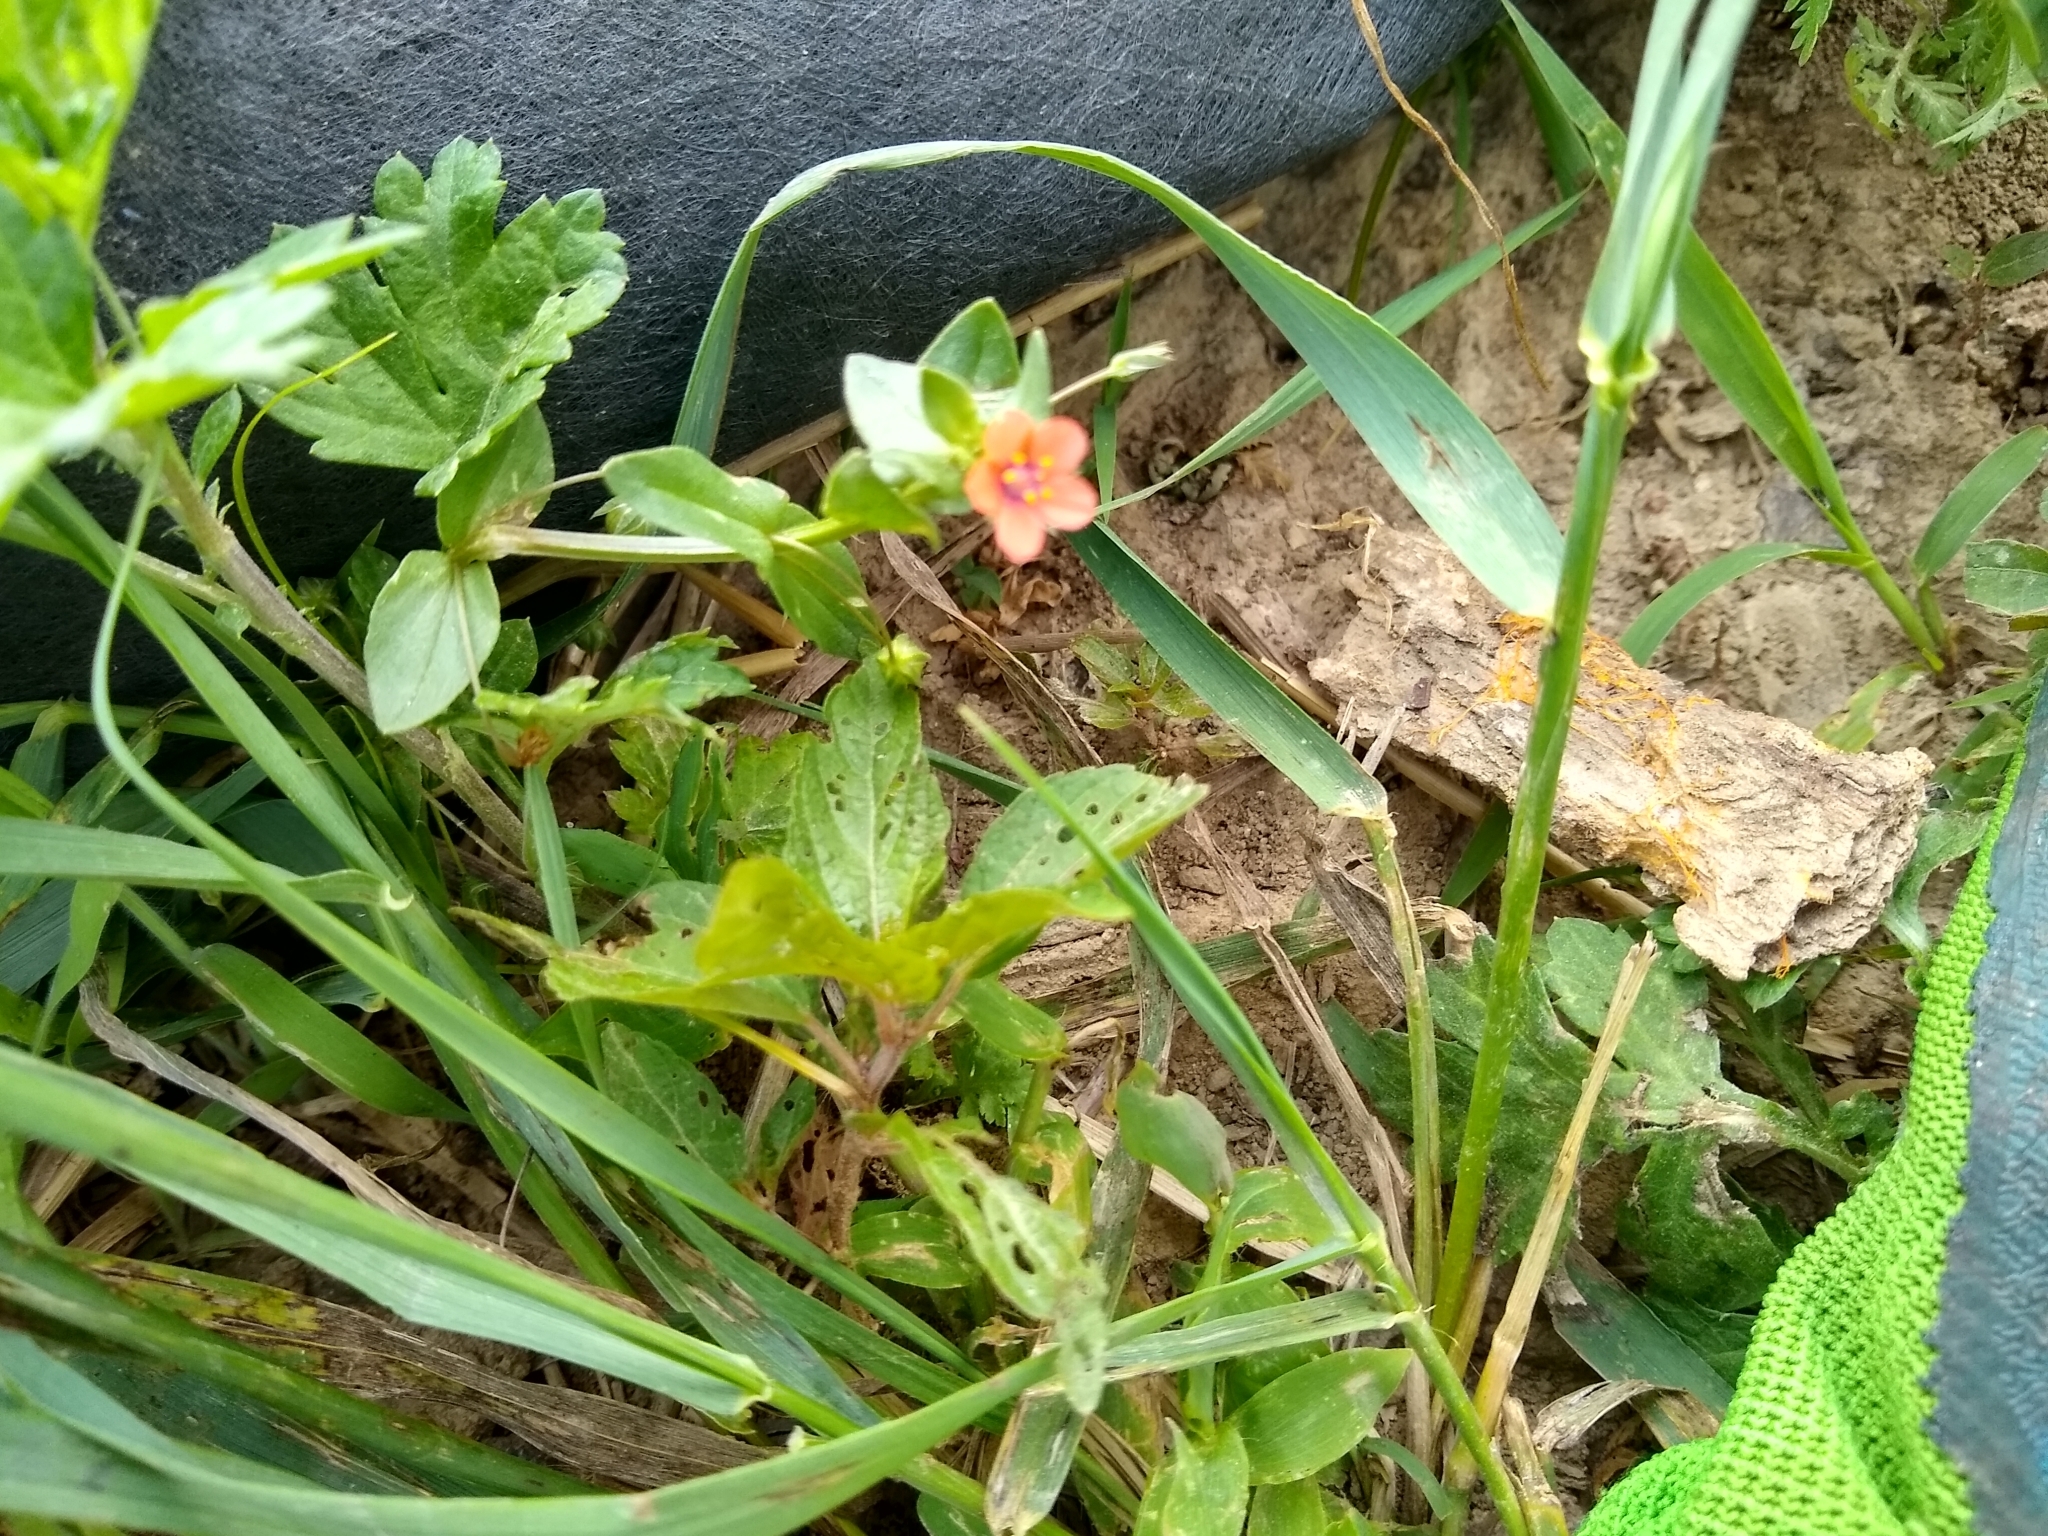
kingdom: Plantae
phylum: Tracheophyta
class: Magnoliopsida
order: Ericales
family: Primulaceae
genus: Lysimachia
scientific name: Lysimachia arvensis
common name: Scarlet pimpernel
